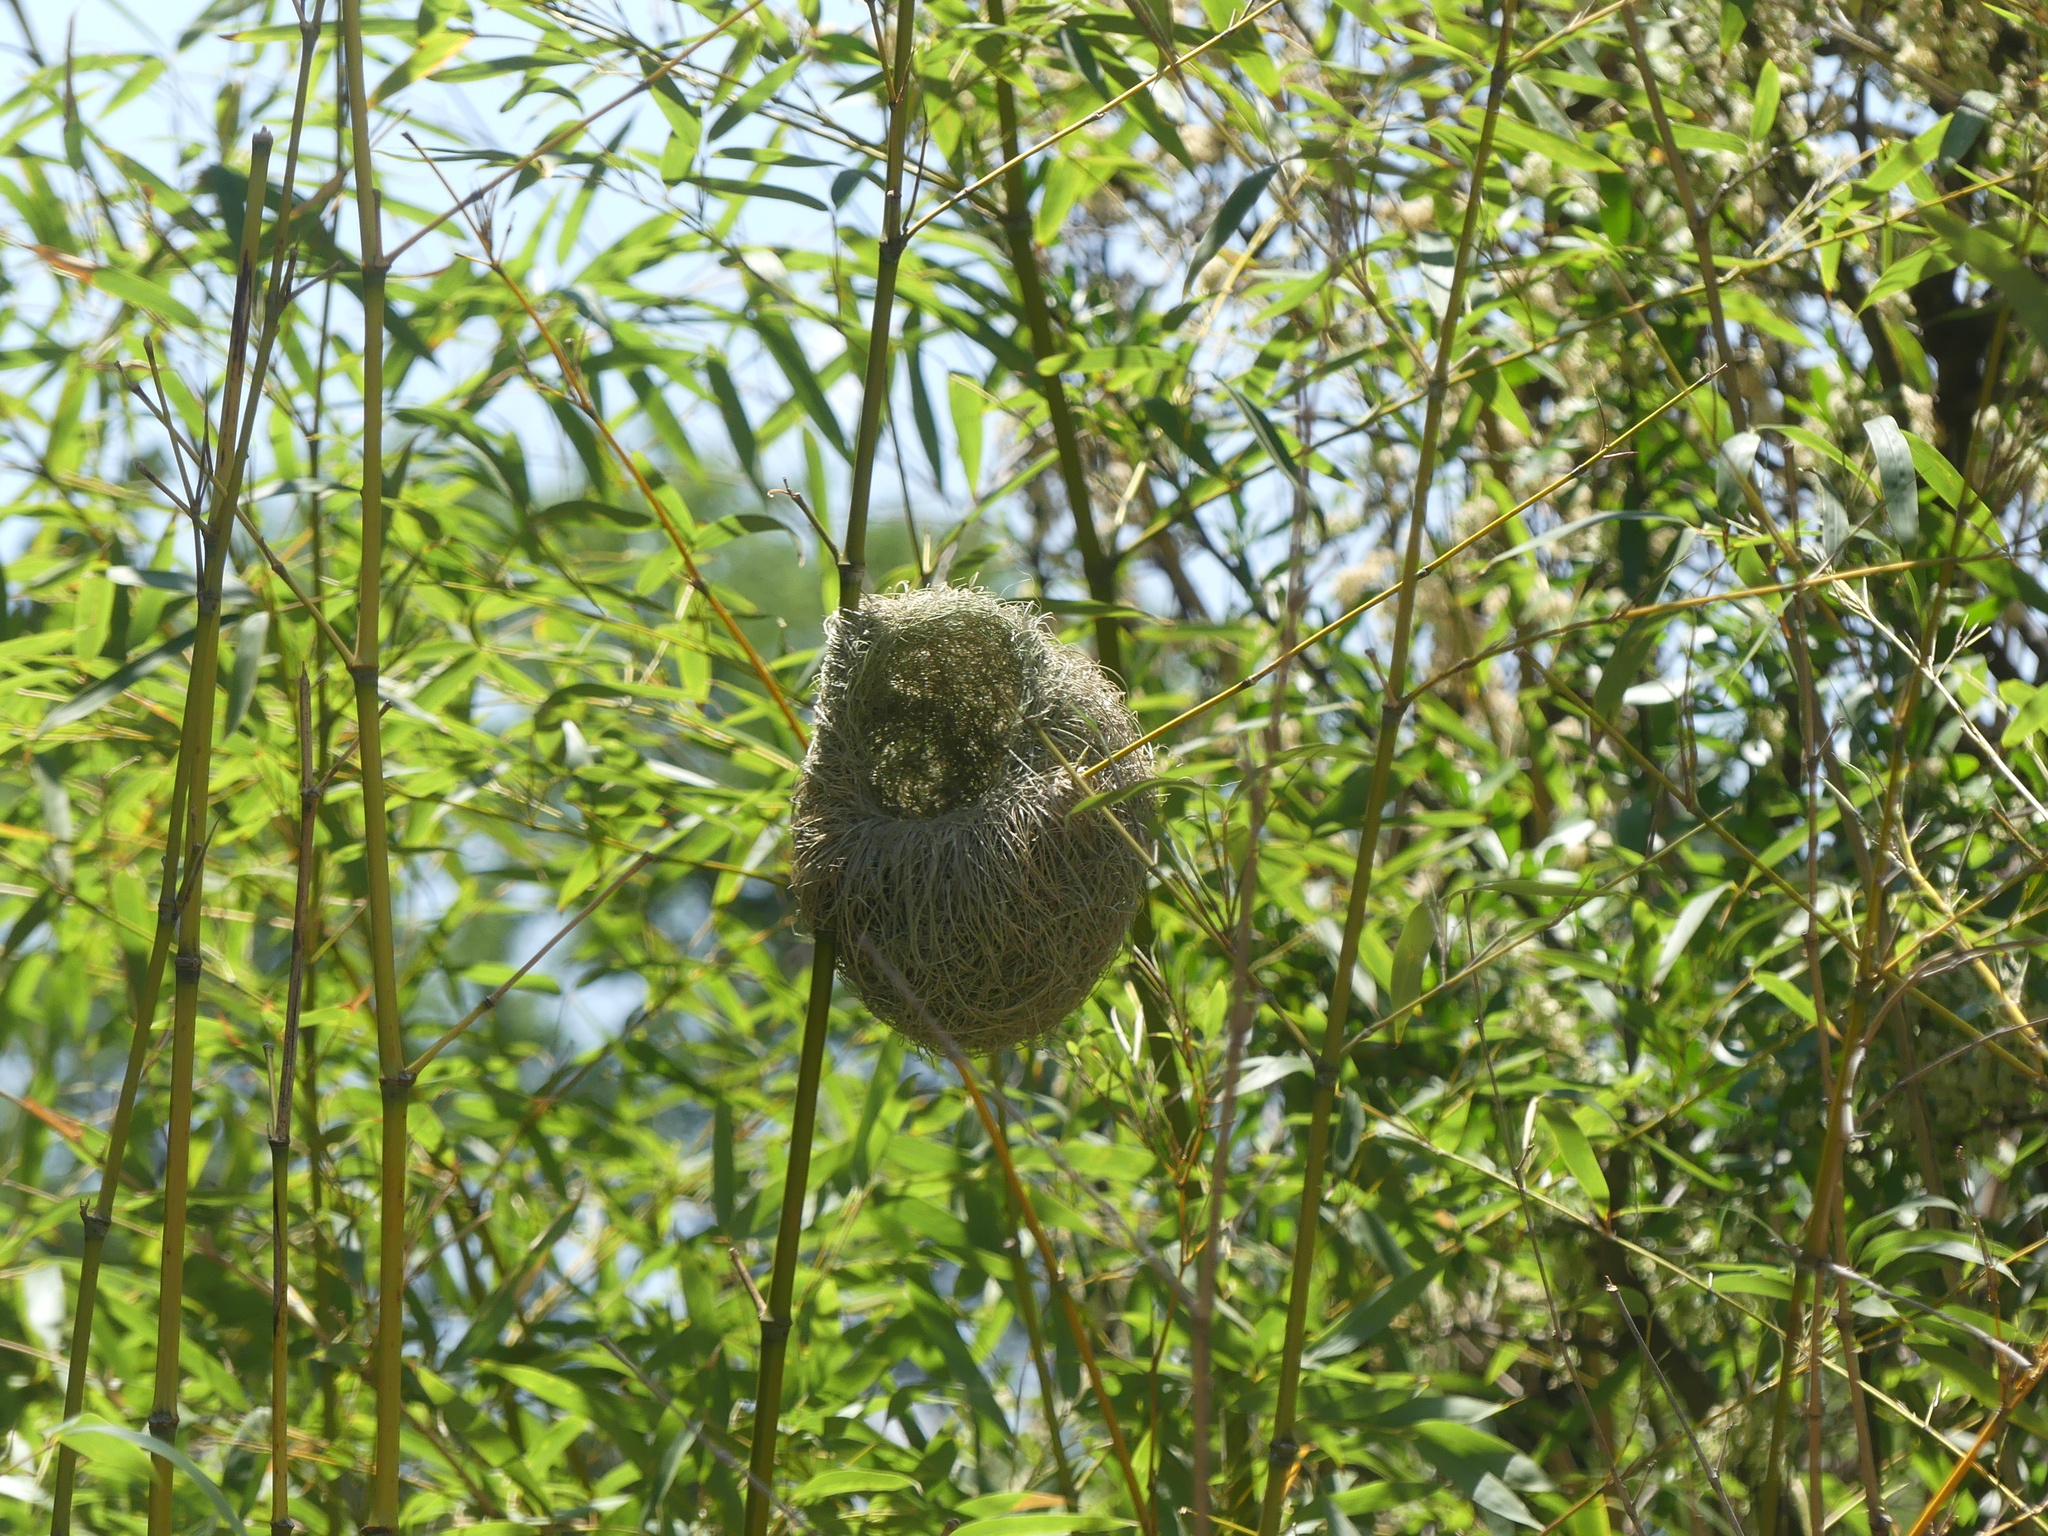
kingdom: Animalia
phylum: Chordata
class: Aves
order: Passeriformes
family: Ploceidae
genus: Amblyospiza
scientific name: Amblyospiza albifrons
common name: Thick-billed weaver
